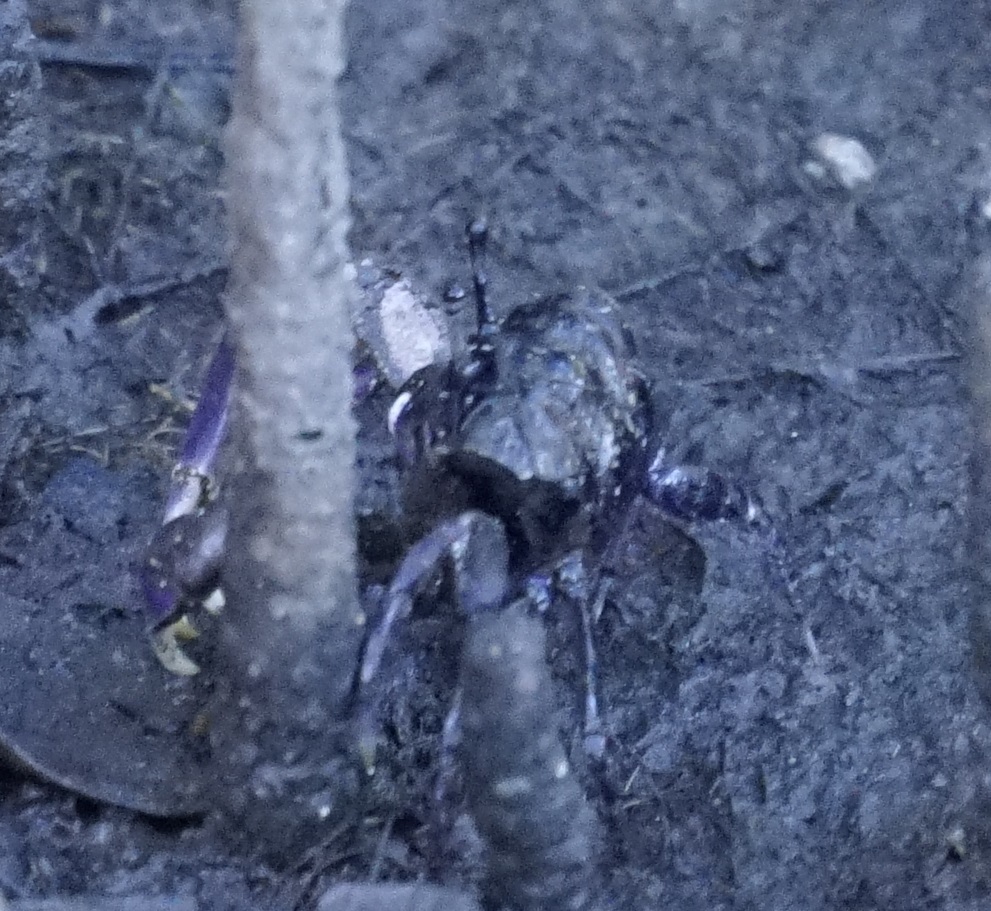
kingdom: Animalia
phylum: Arthropoda
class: Malacostraca
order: Decapoda
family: Heloeciidae
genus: Heloecius
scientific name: Heloecius cordiformis
